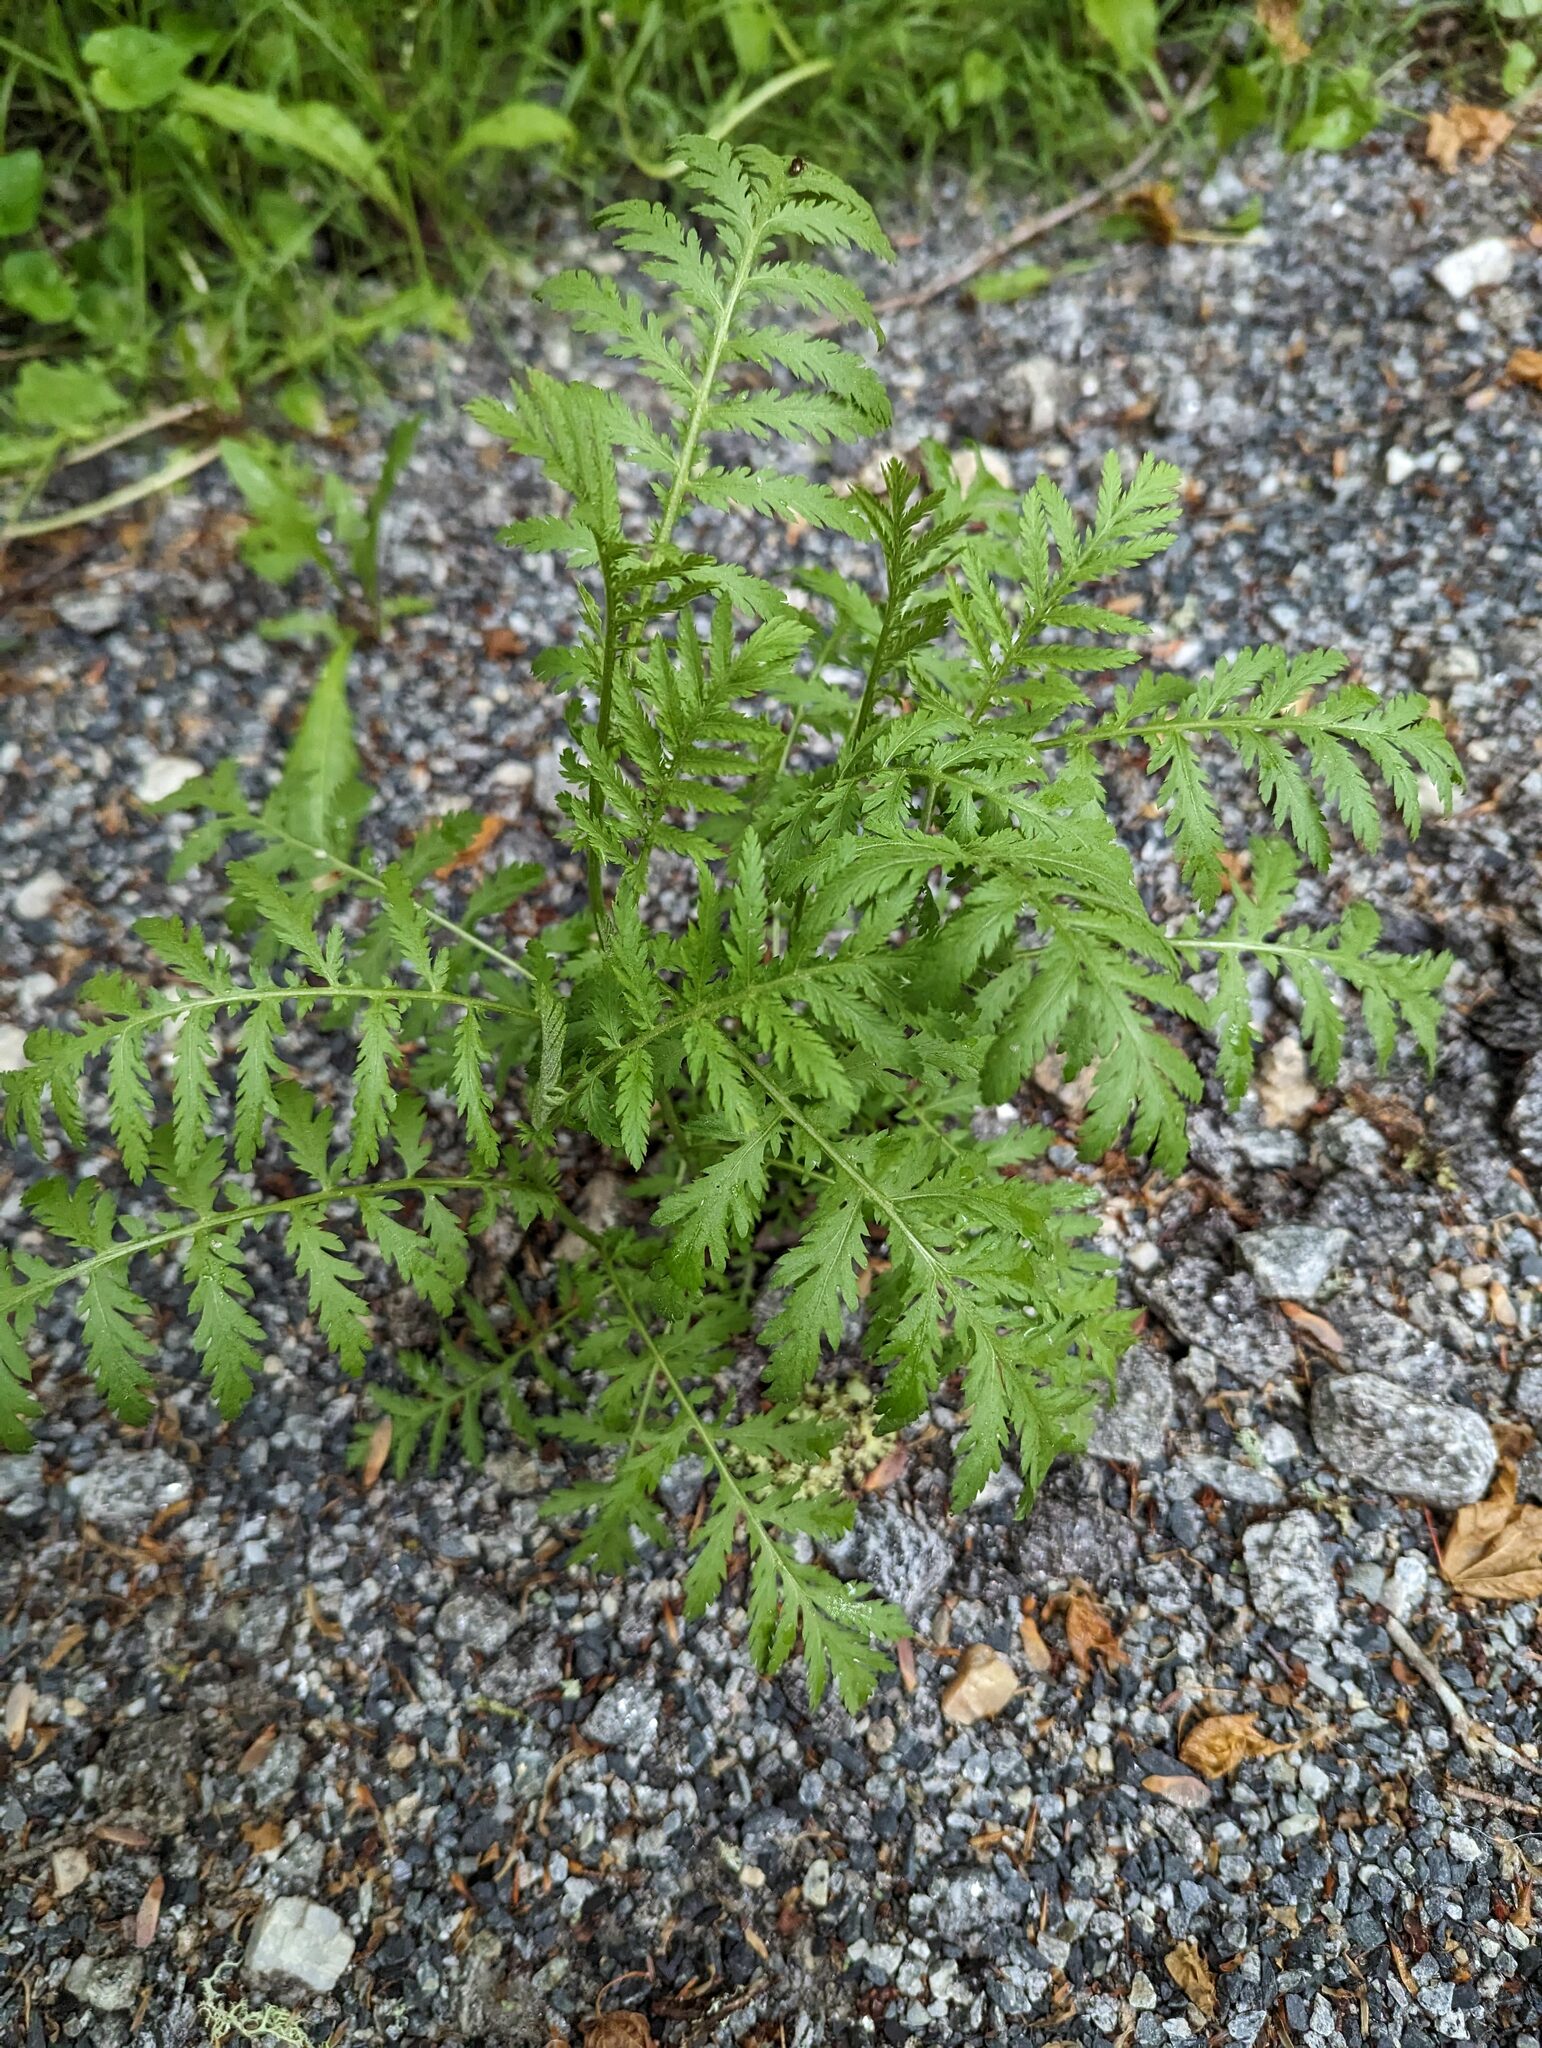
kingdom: Plantae
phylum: Tracheophyta
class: Magnoliopsida
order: Asterales
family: Asteraceae
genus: Tanacetum
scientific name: Tanacetum vulgare
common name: Common tansy
